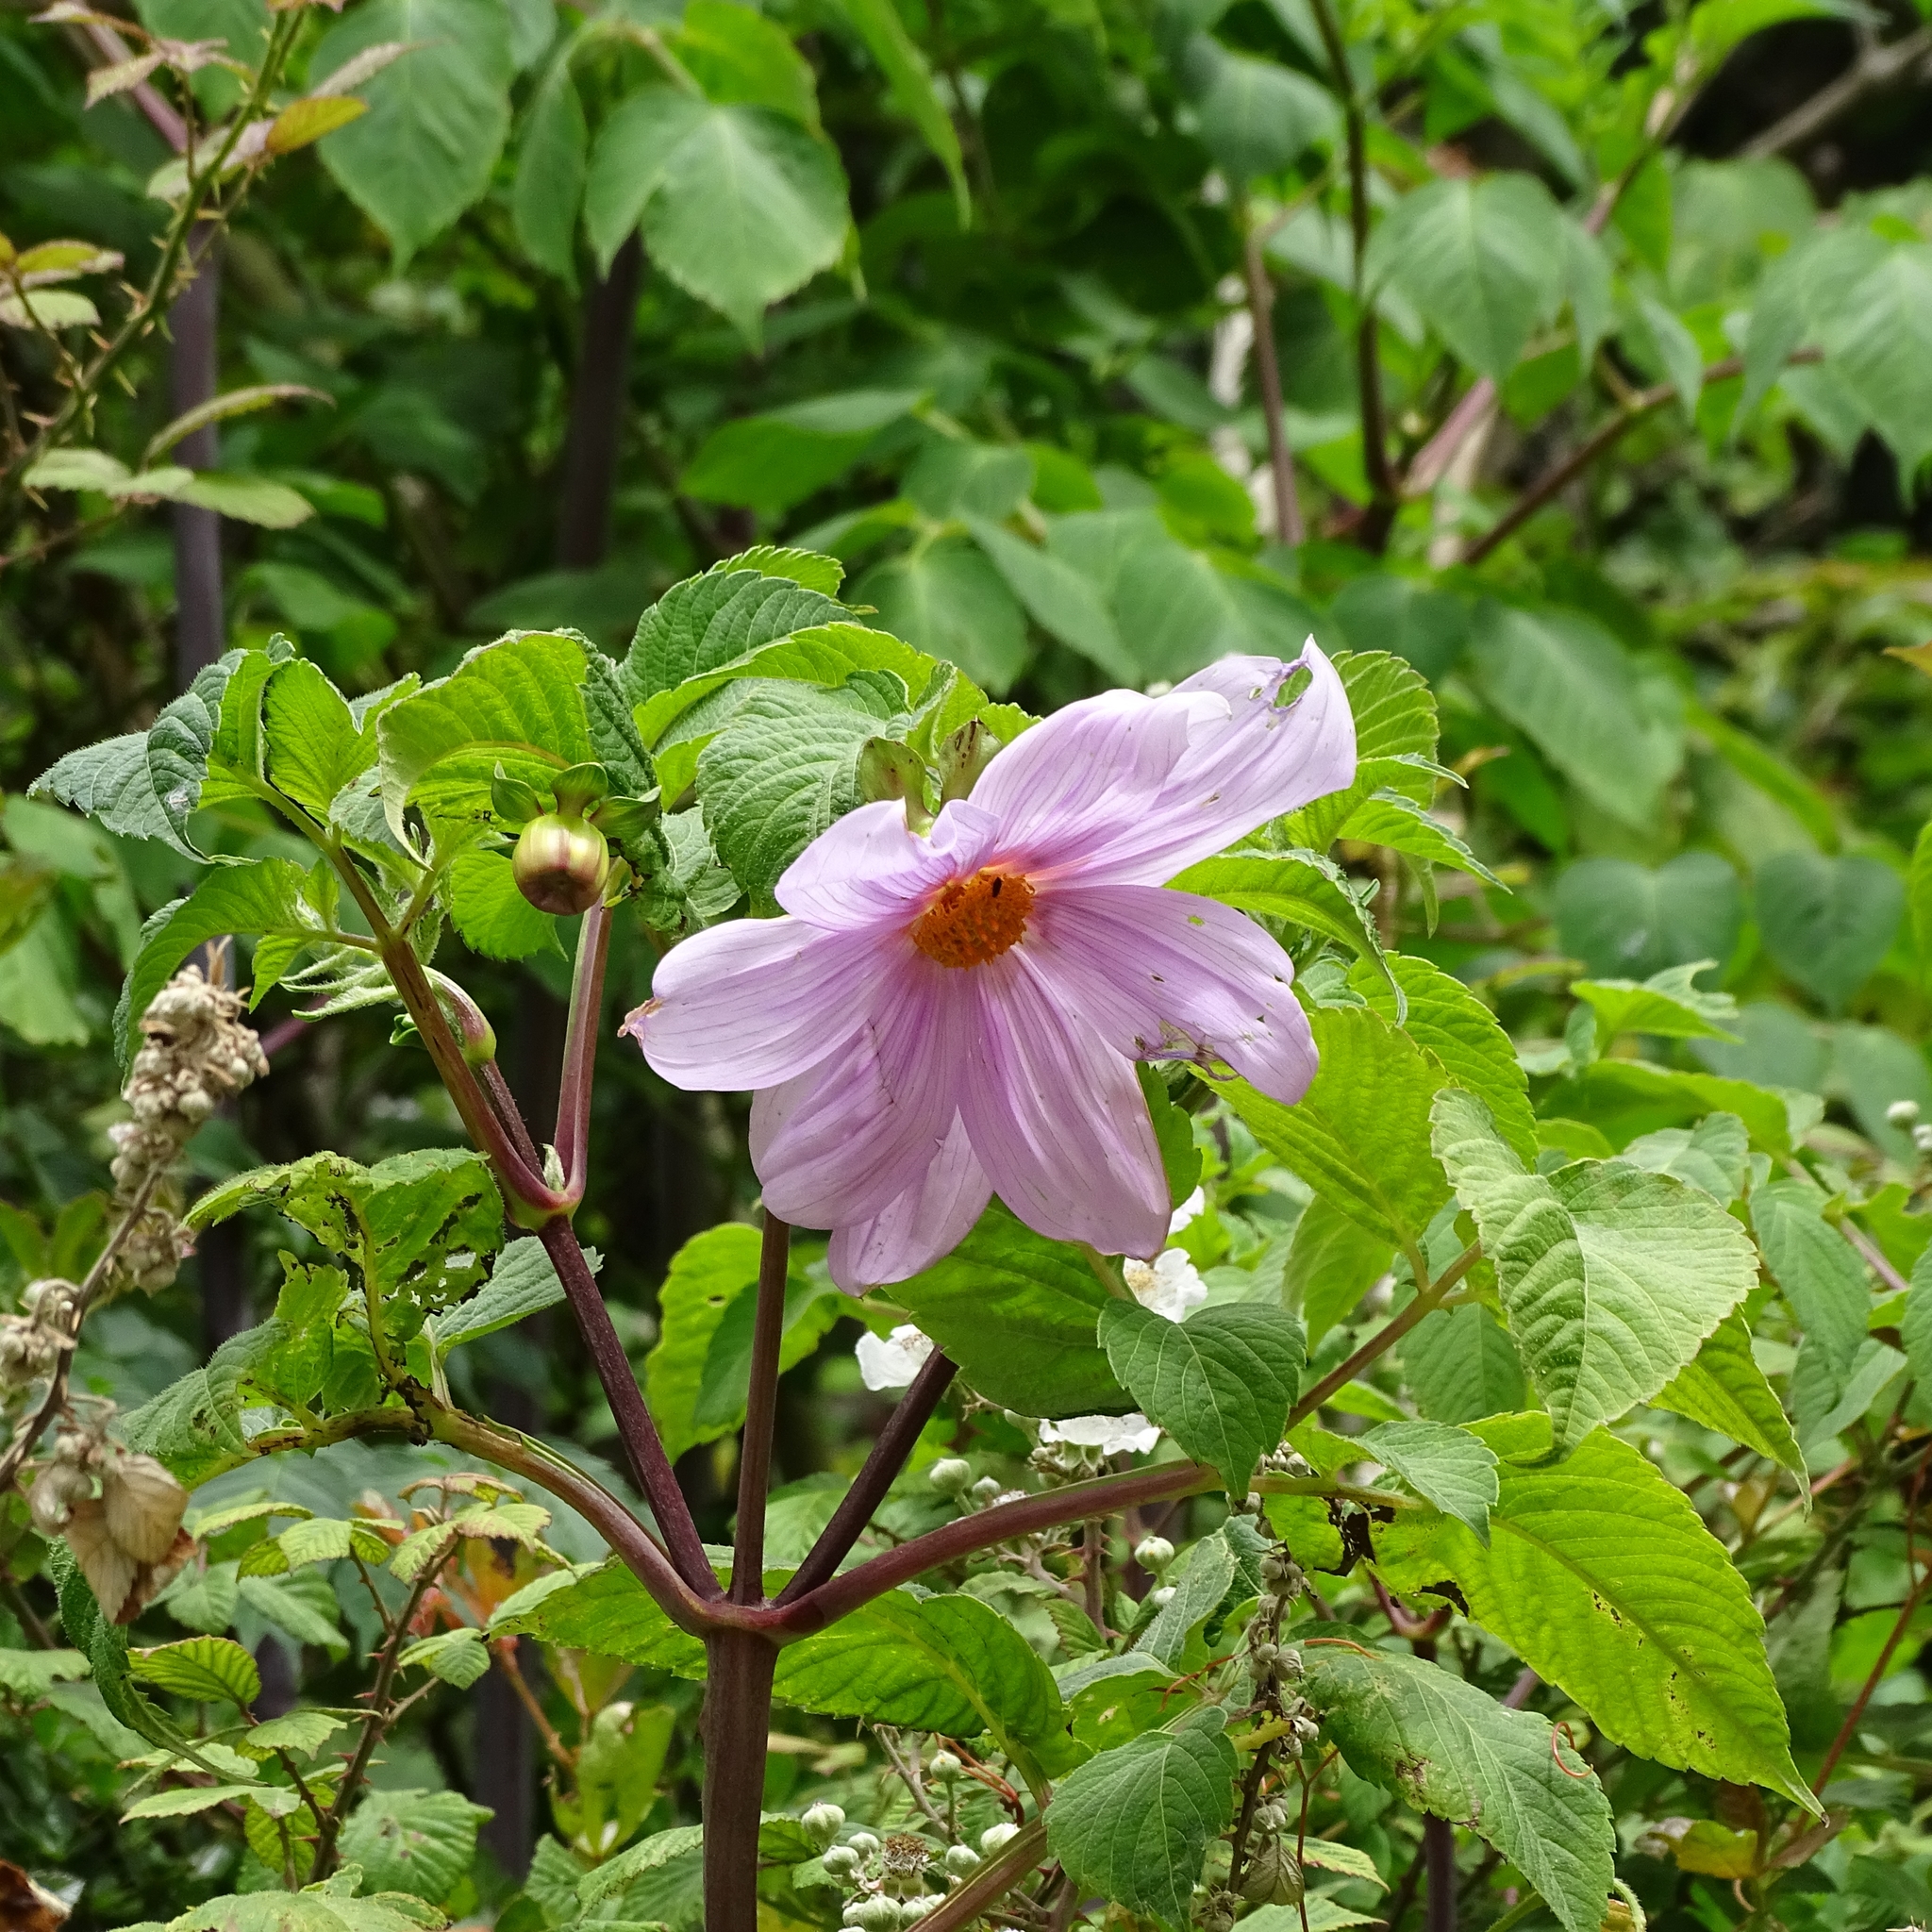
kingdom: Plantae
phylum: Tracheophyta
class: Magnoliopsida
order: Asterales
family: Asteraceae
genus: Dahlia
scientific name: Dahlia imperialis
